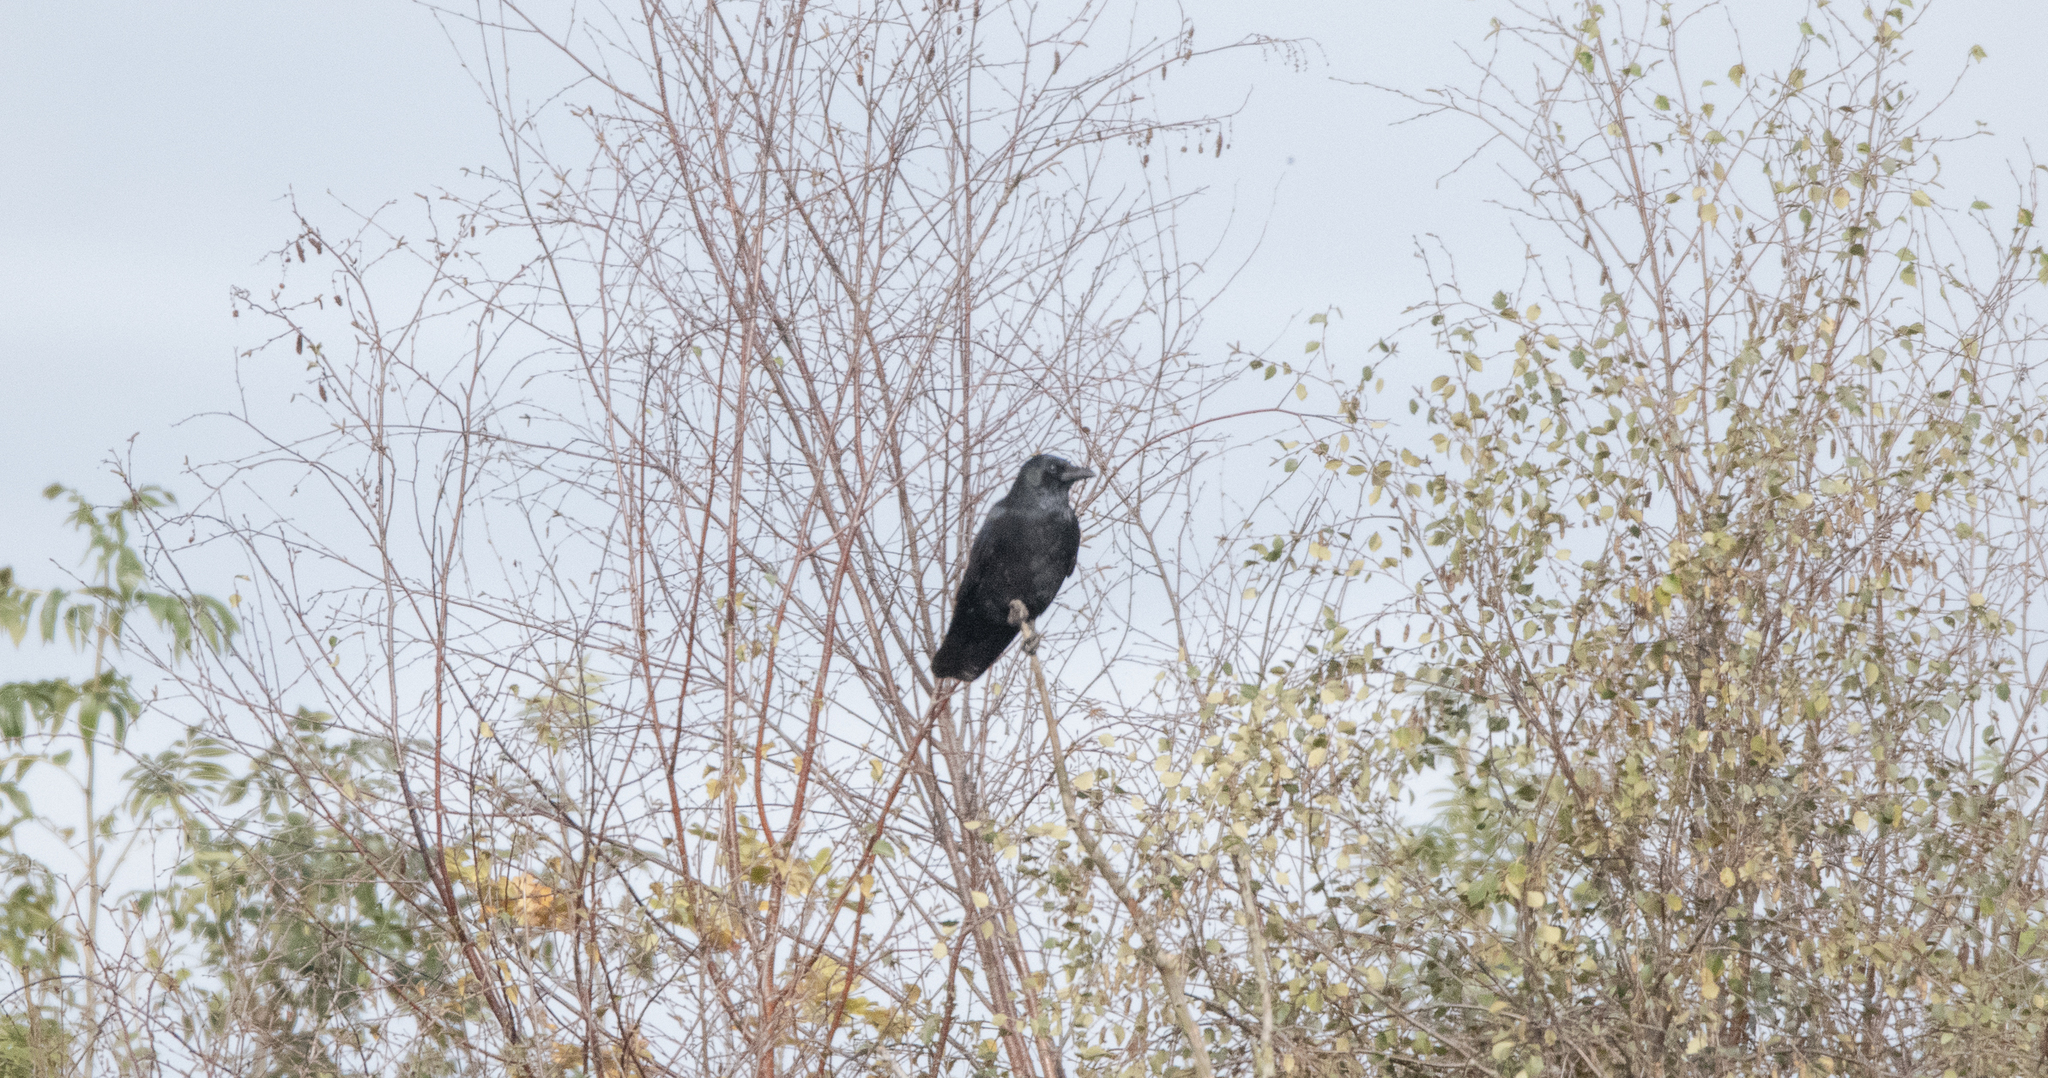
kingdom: Animalia
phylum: Chordata
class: Aves
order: Passeriformes
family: Corvidae
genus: Corvus
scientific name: Corvus corone
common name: Carrion crow
